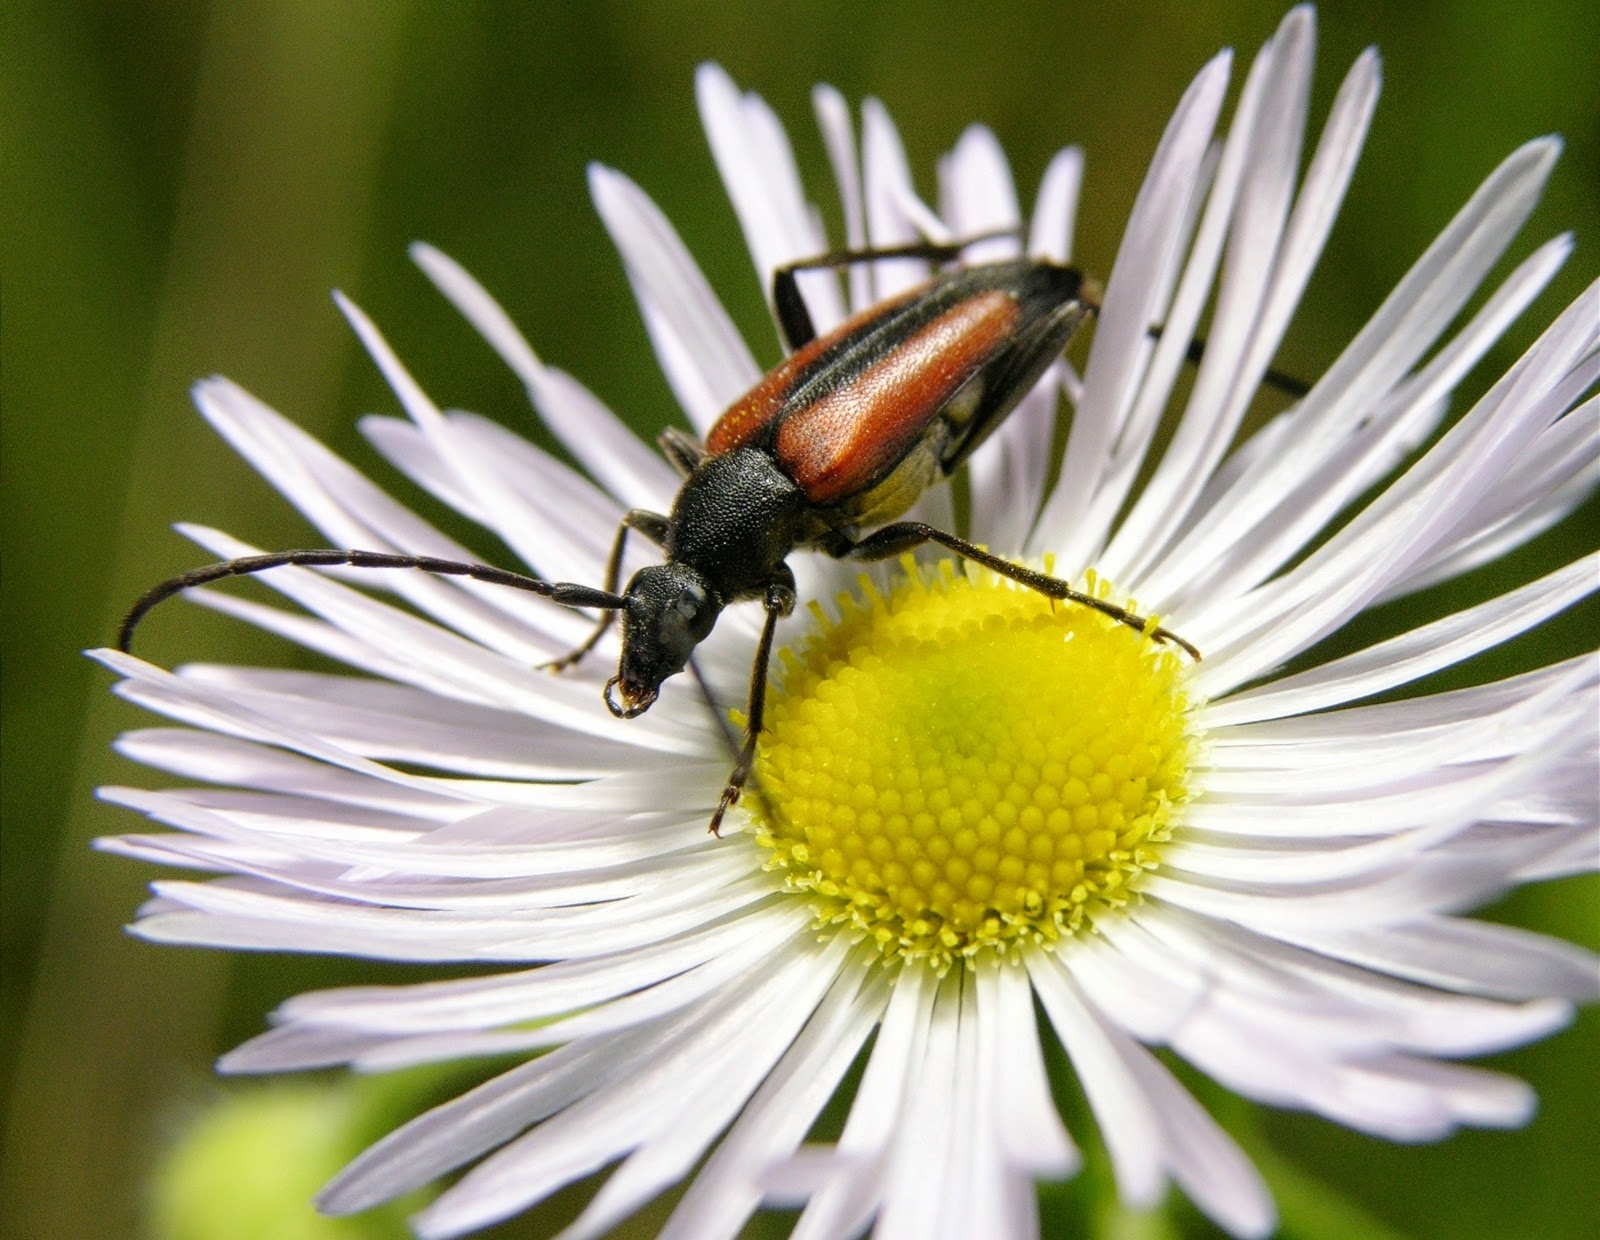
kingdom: Animalia
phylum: Arthropoda
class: Insecta
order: Coleoptera
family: Cerambycidae
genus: Stenurella
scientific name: Stenurella melanura
